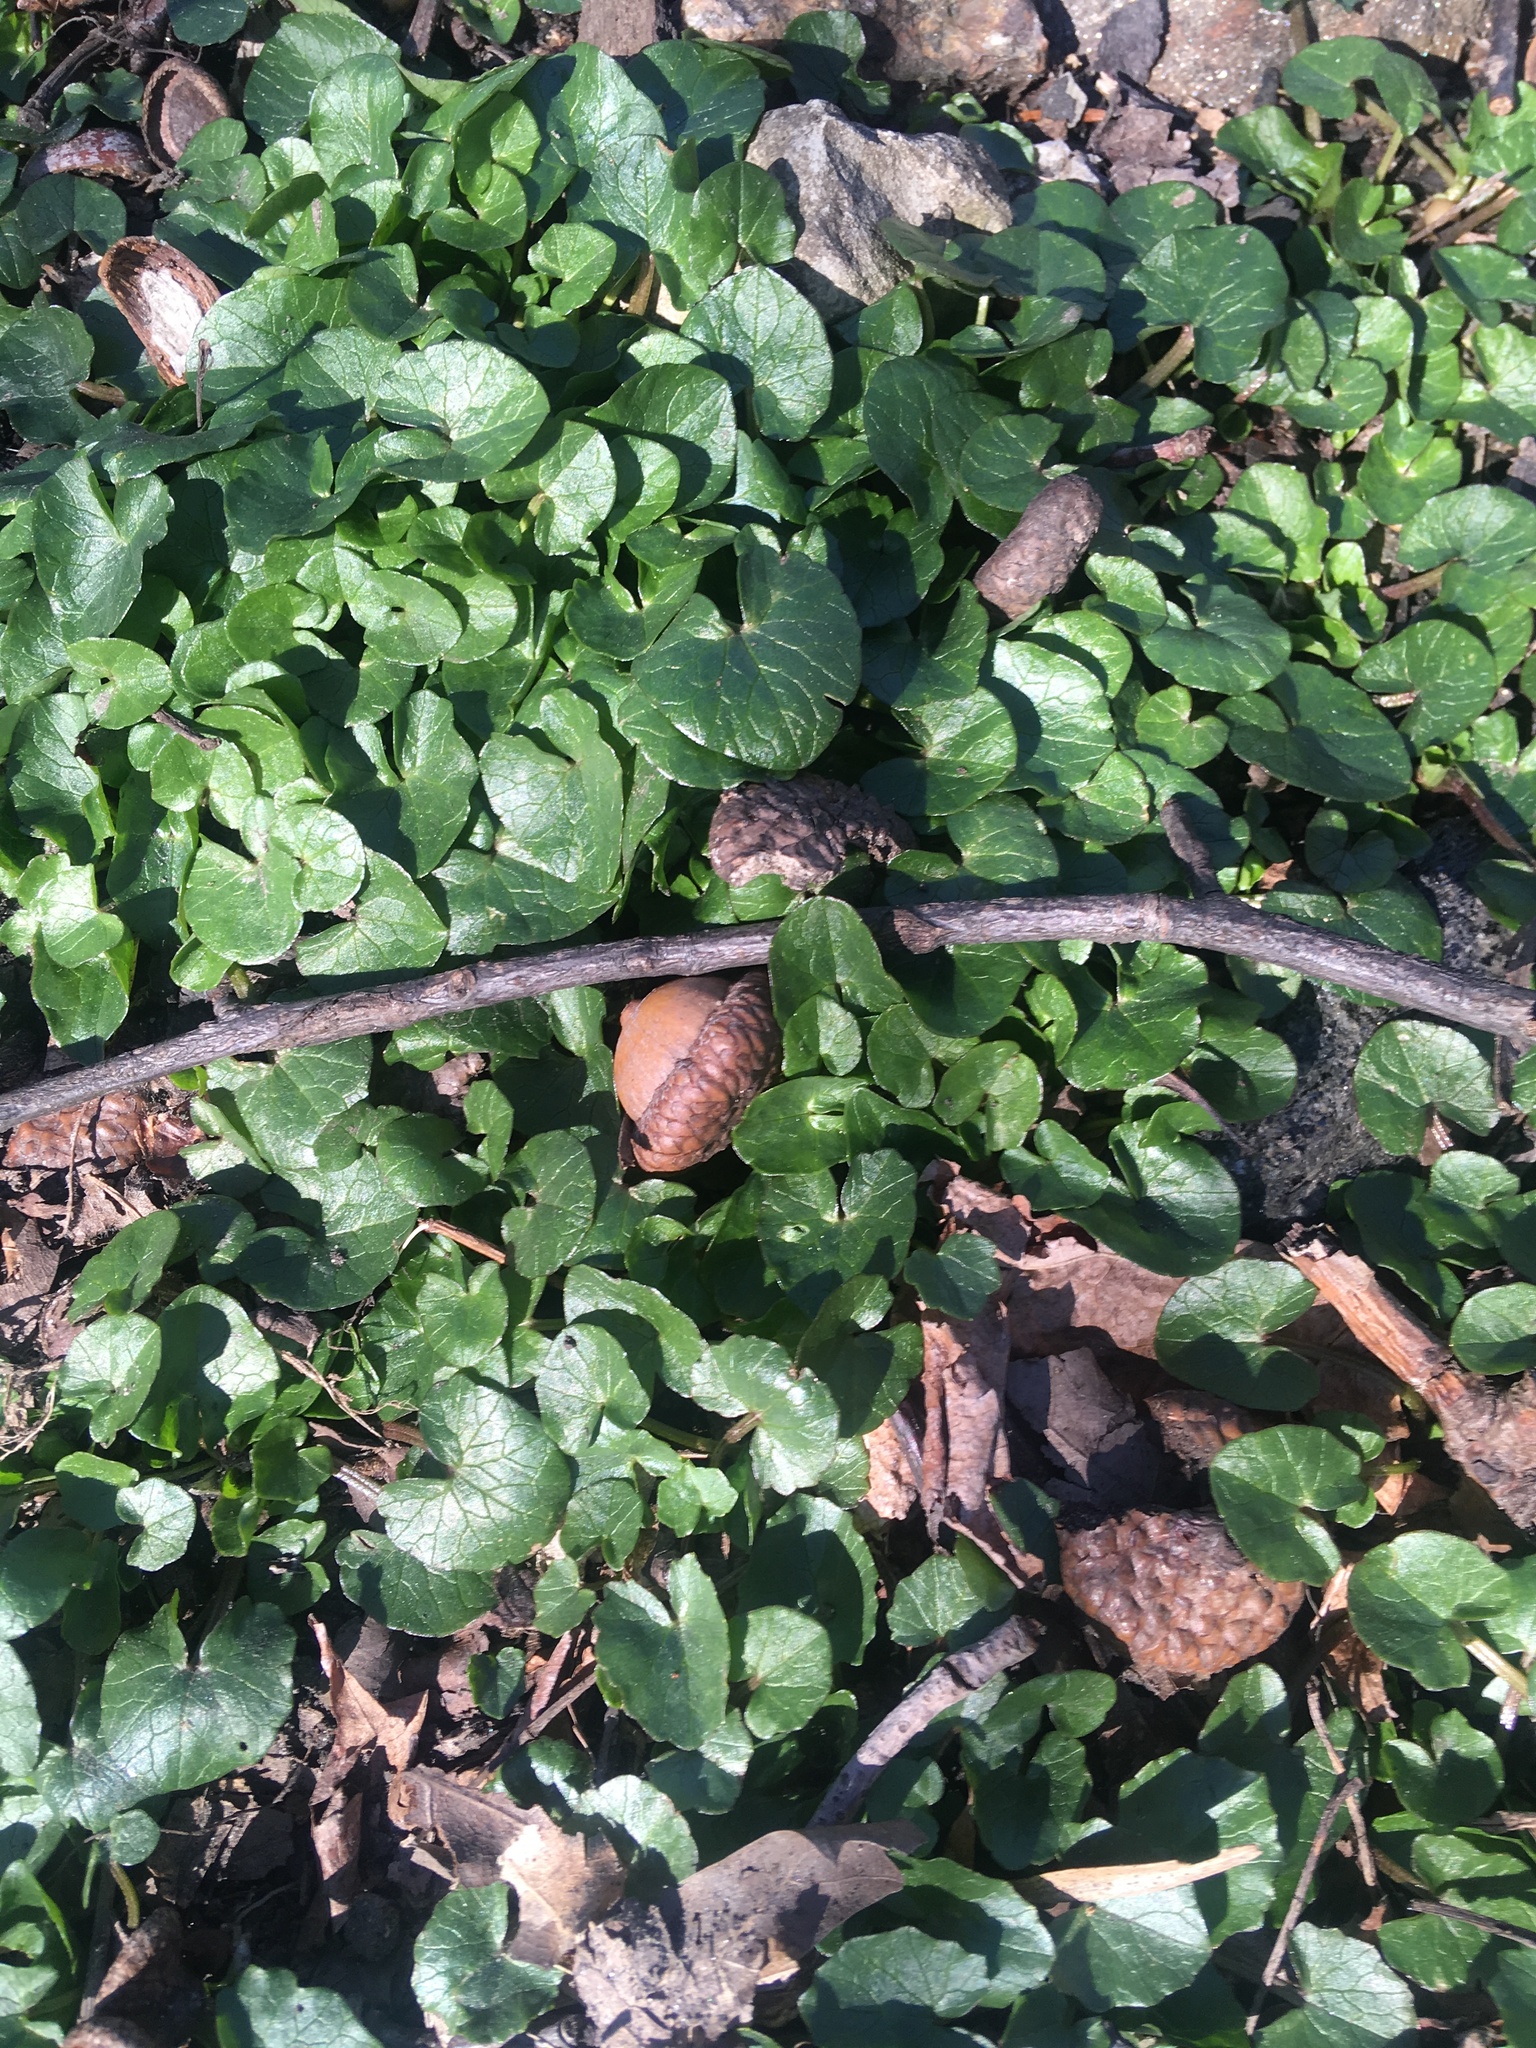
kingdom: Plantae
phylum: Tracheophyta
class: Magnoliopsida
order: Ranunculales
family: Ranunculaceae
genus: Ficaria
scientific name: Ficaria verna
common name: Lesser celandine
